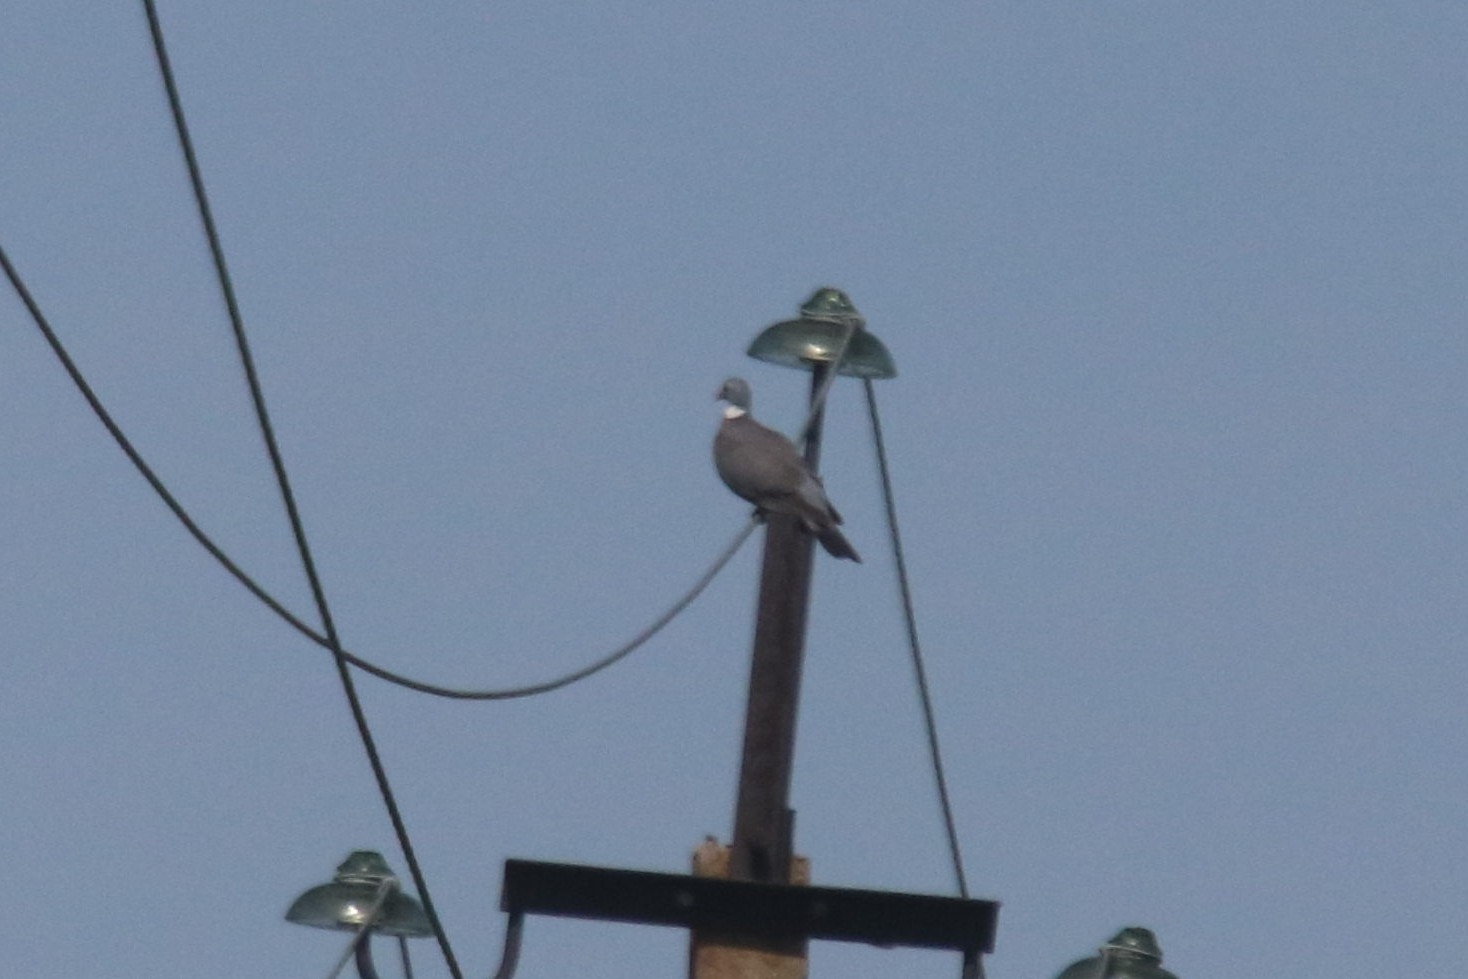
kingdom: Animalia
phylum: Chordata
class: Aves
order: Columbiformes
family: Columbidae
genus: Columba
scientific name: Columba palumbus
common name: Common wood pigeon
